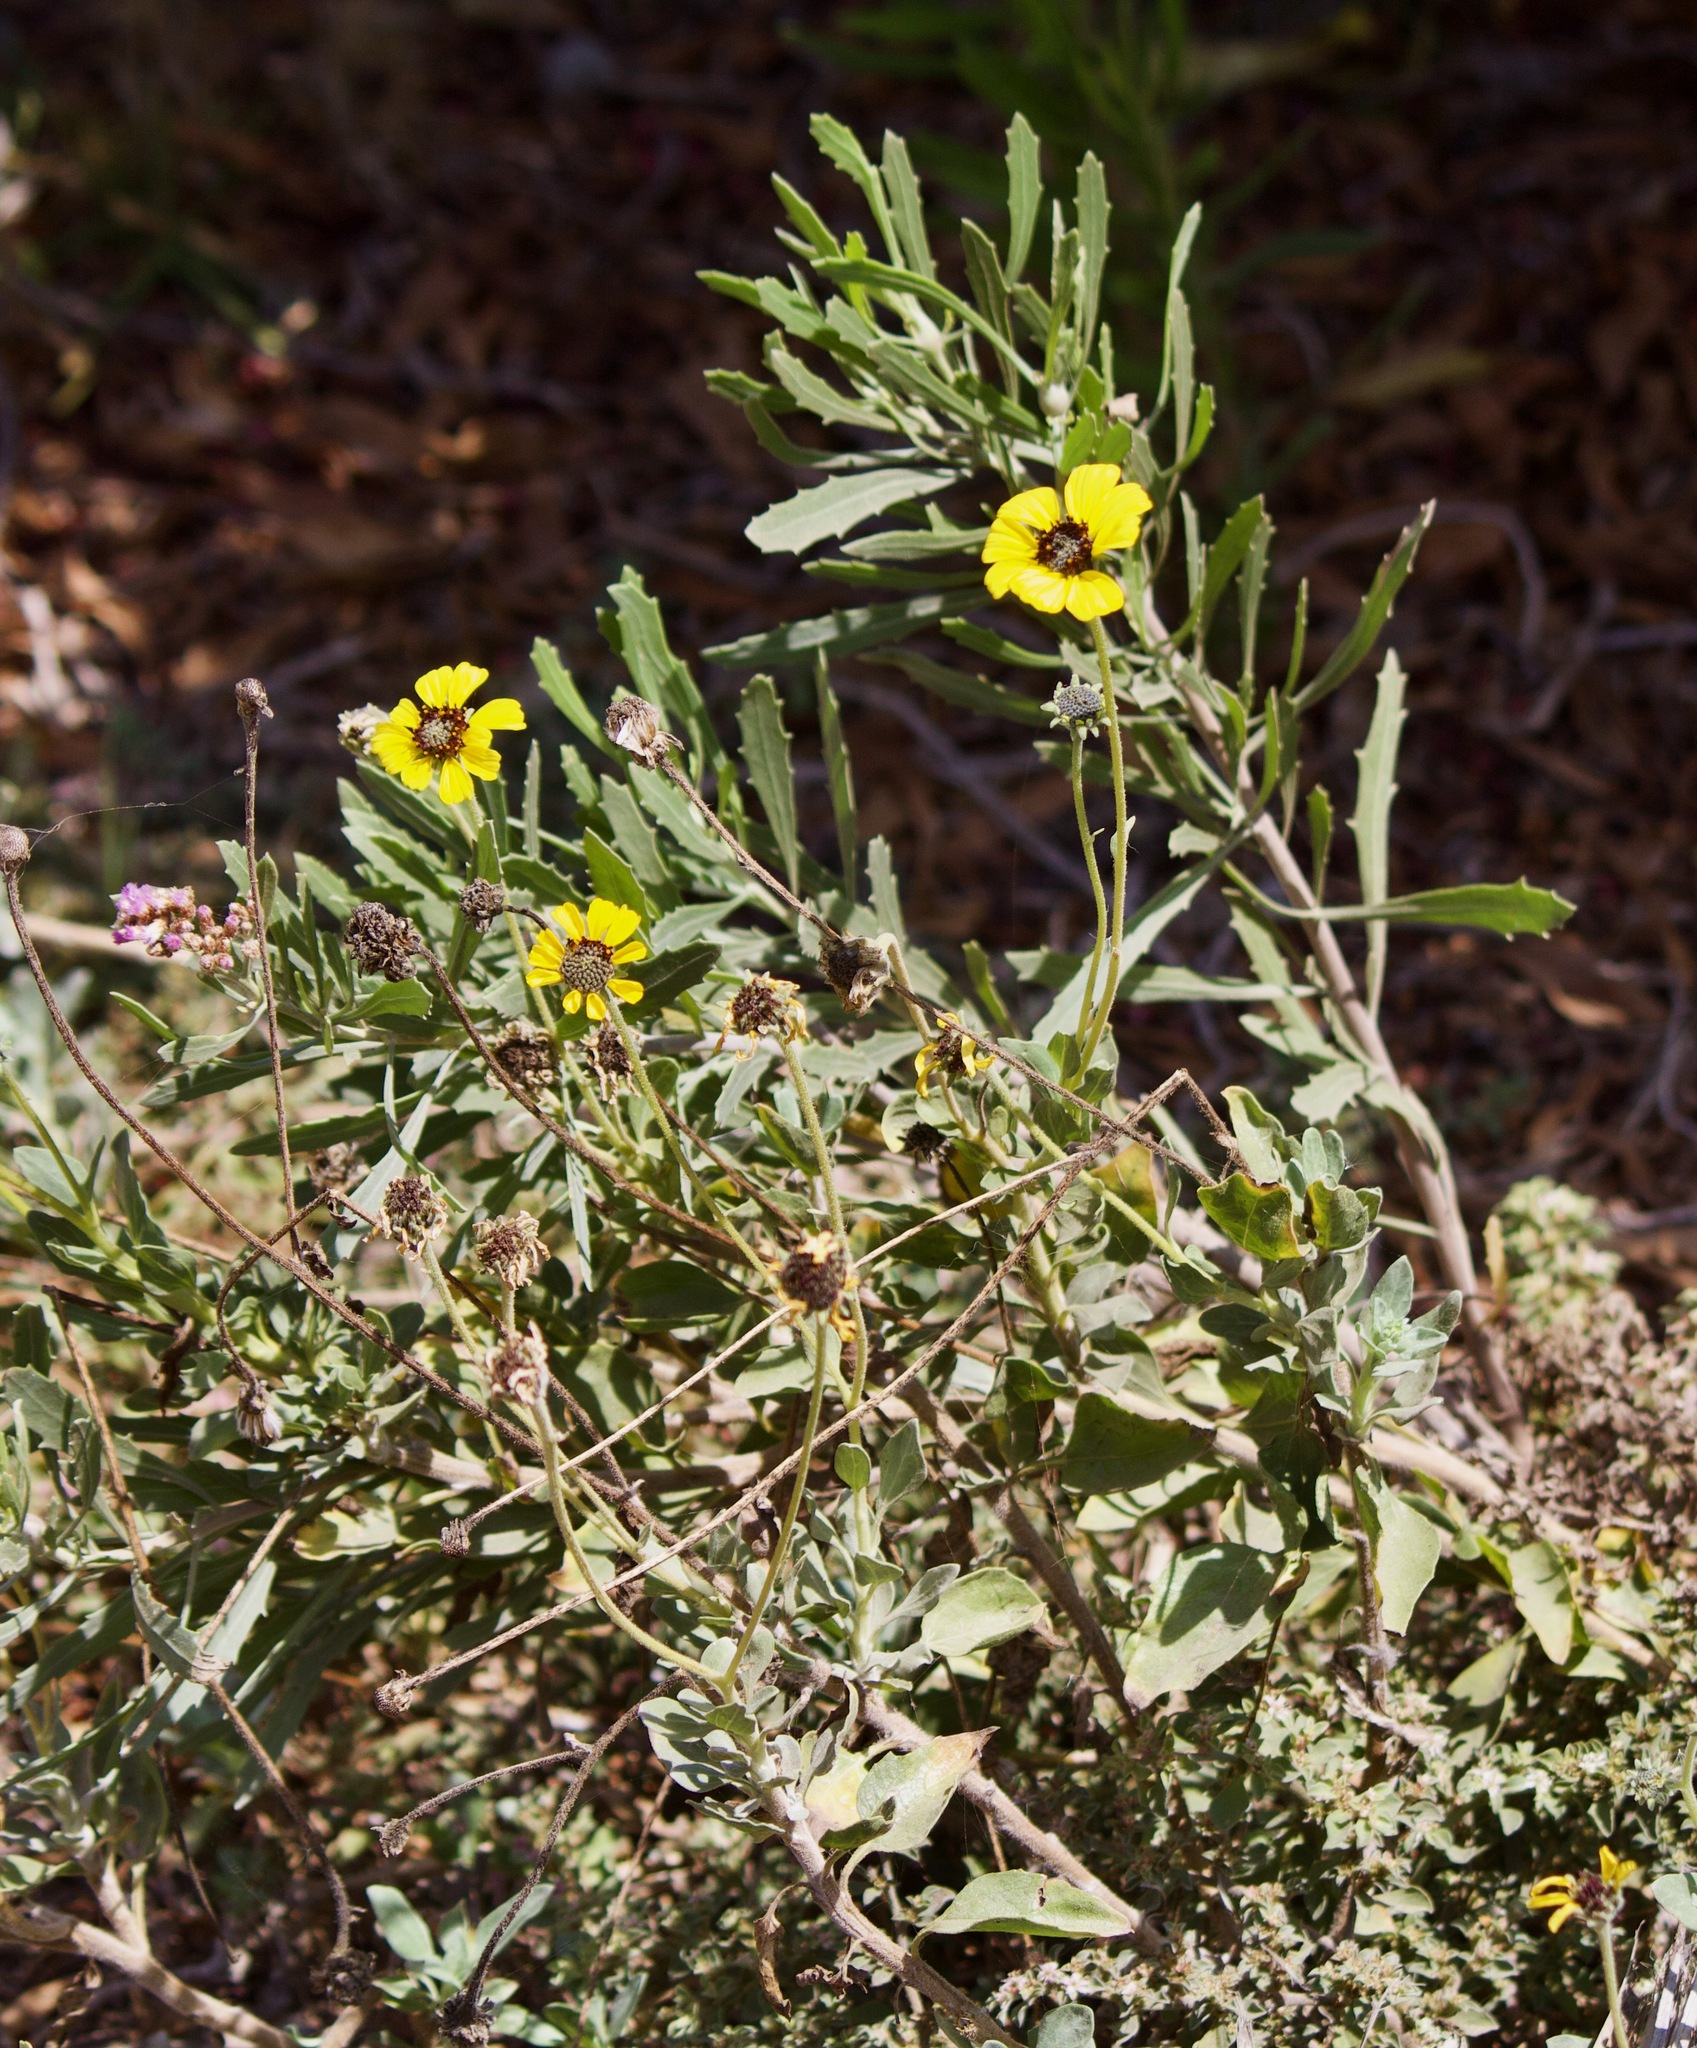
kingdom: Plantae
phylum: Tracheophyta
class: Magnoliopsida
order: Asterales
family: Asteraceae
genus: Encelia
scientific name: Encelia canescens
